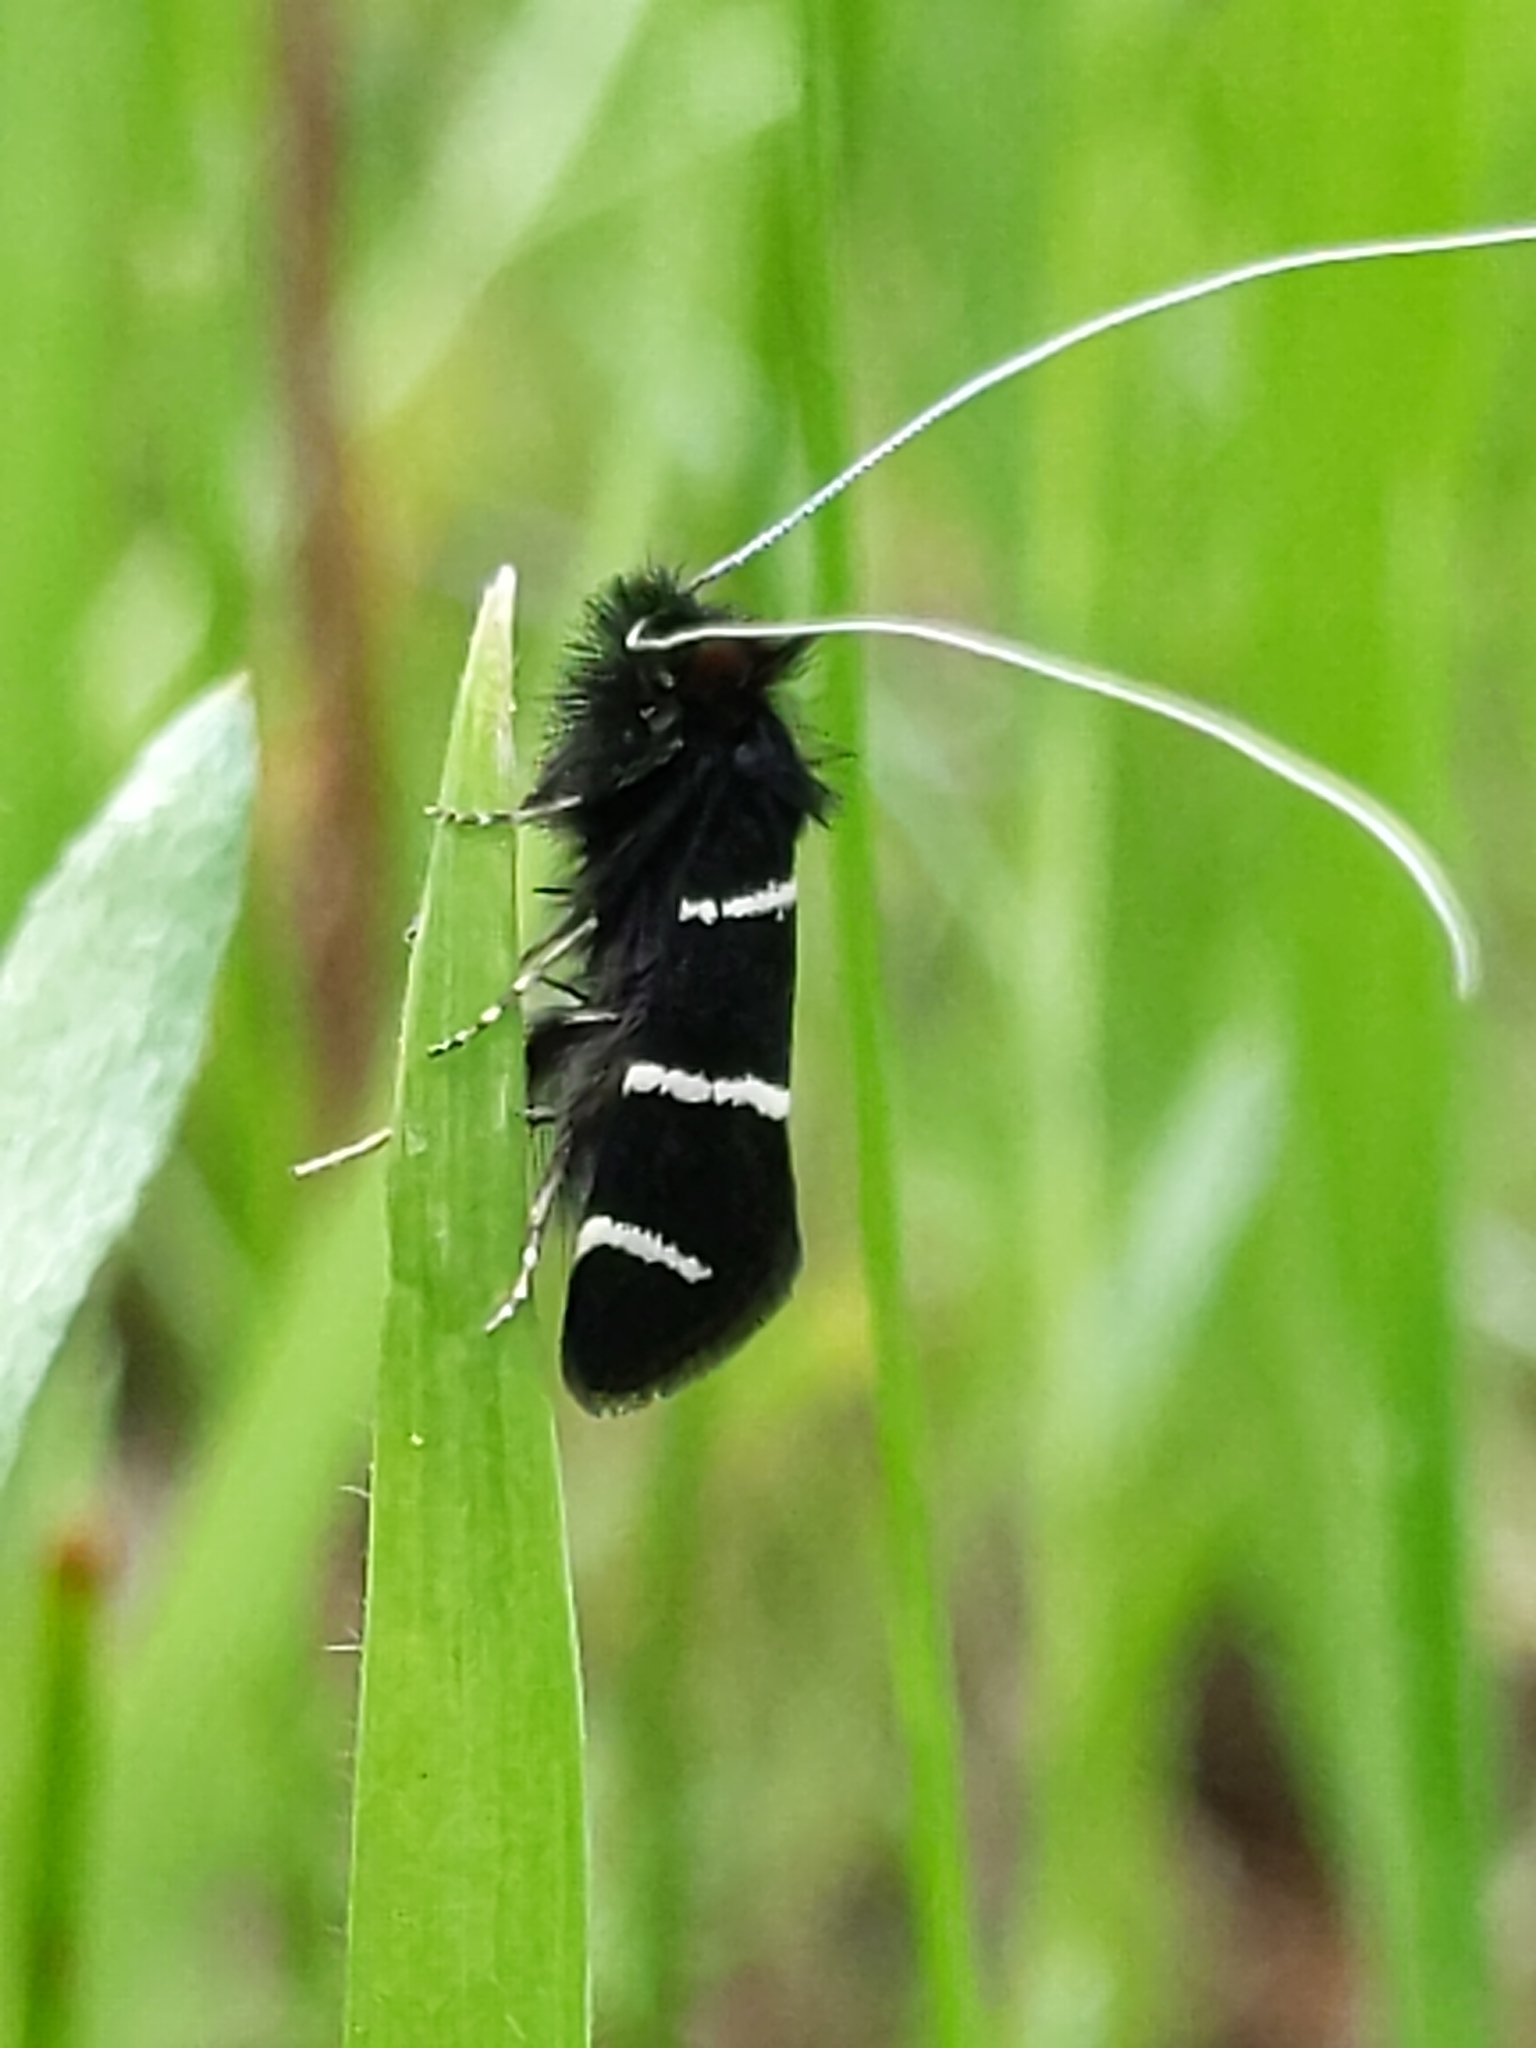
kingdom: Animalia
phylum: Arthropoda
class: Insecta
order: Lepidoptera
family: Adelidae
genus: Adela
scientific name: Adela trigrapha
